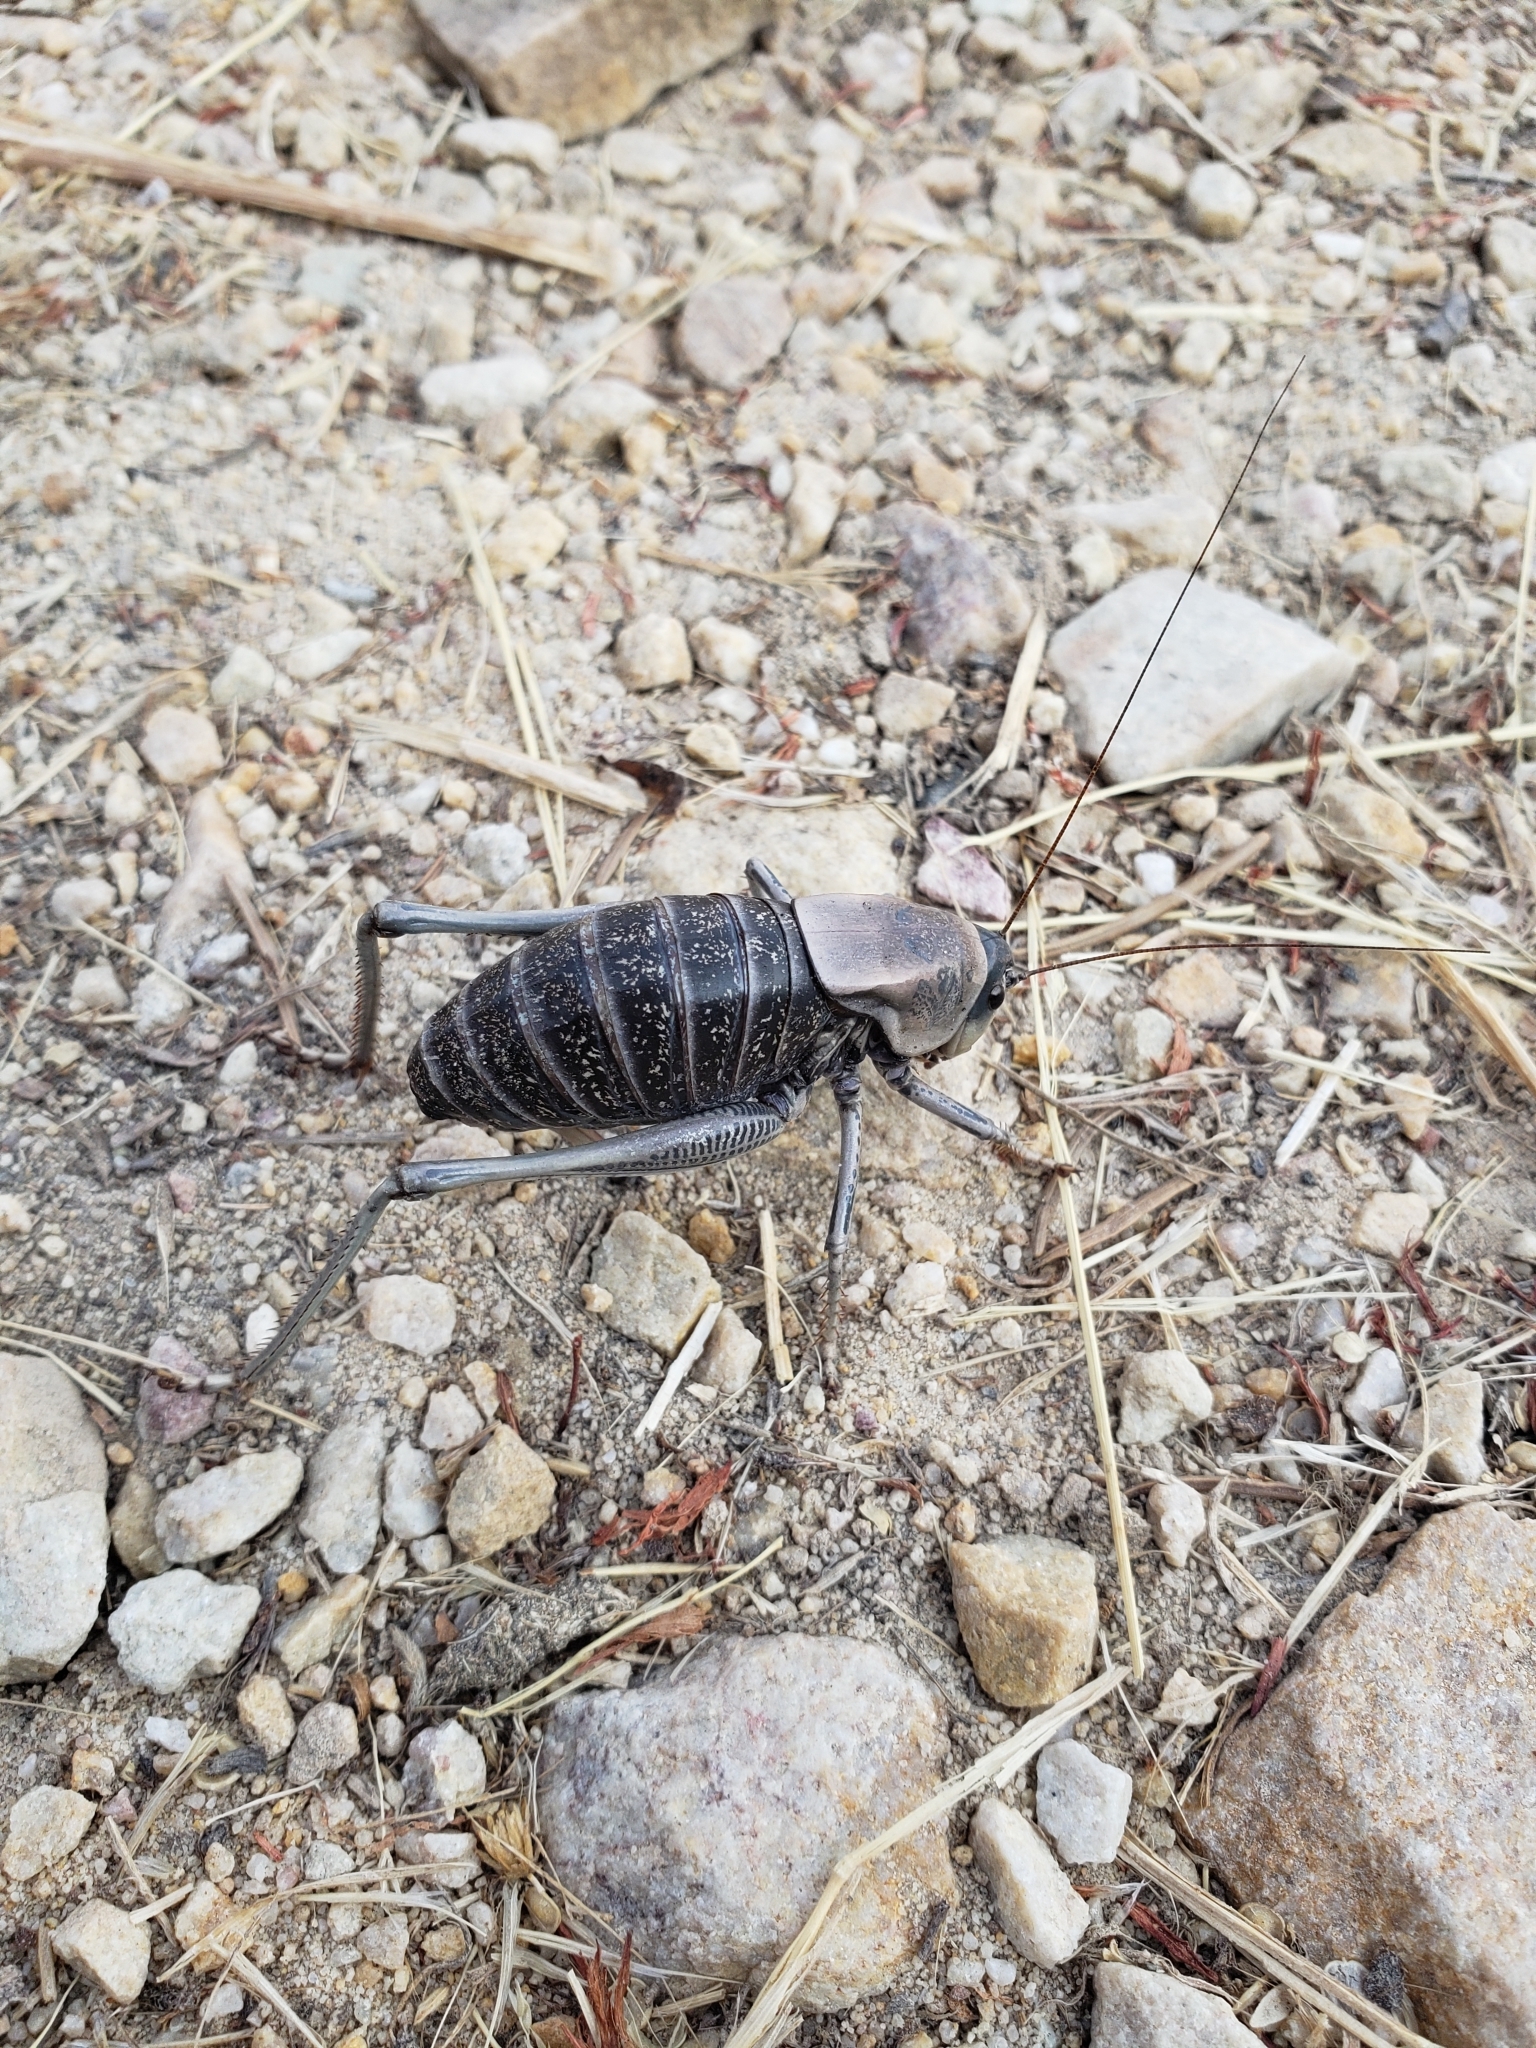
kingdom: Animalia
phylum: Arthropoda
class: Insecta
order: Orthoptera
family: Tettigoniidae
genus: Anabrus
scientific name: Anabrus simplex
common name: Mormon cricket
